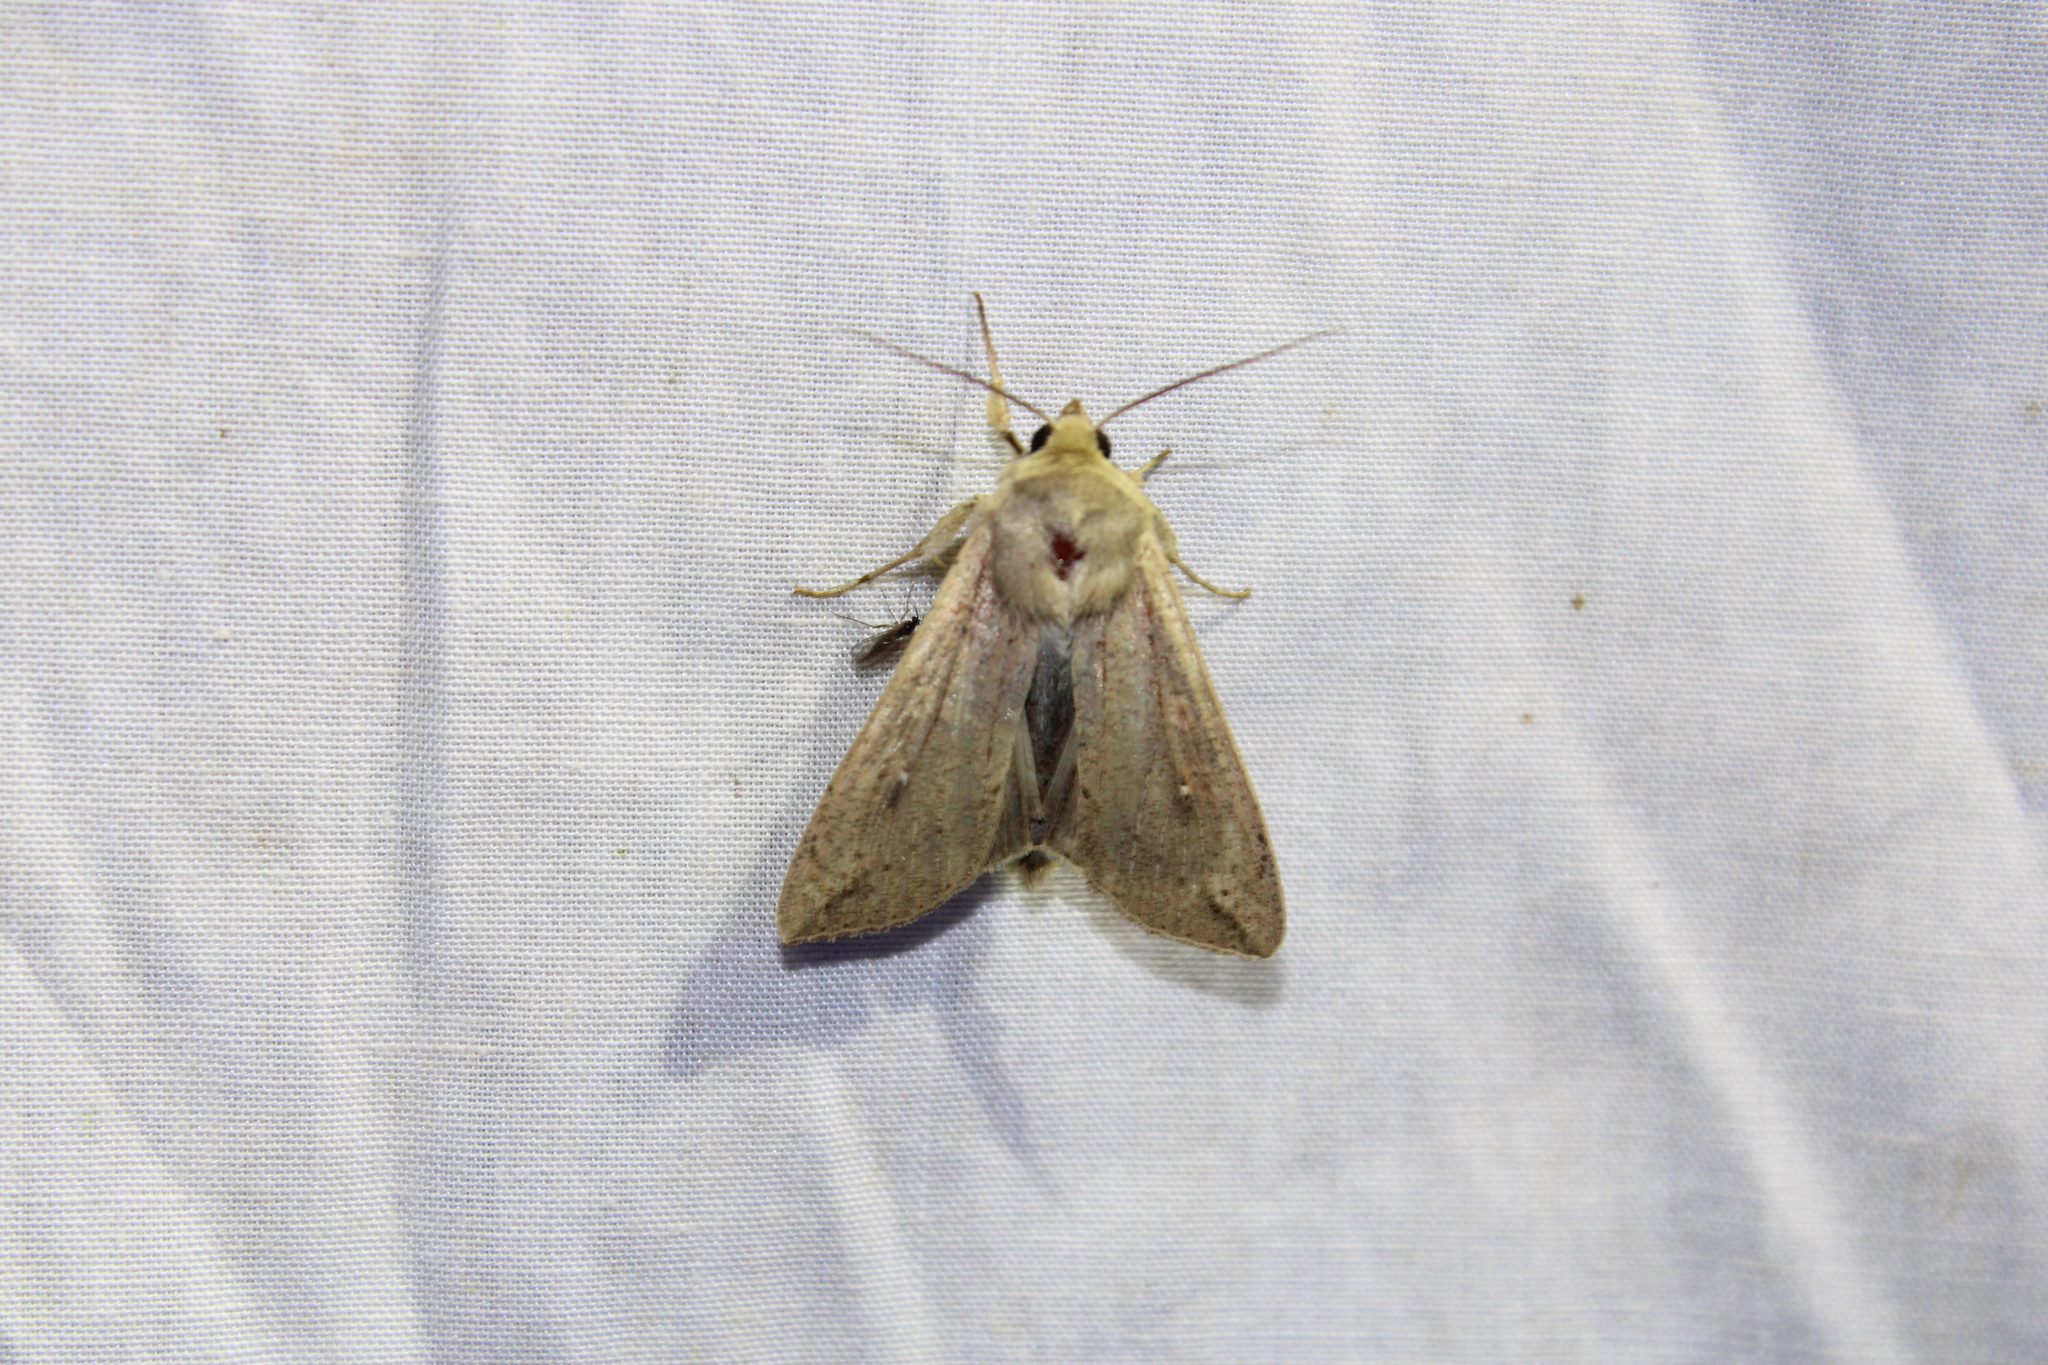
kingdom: Animalia
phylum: Arthropoda
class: Insecta
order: Lepidoptera
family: Noctuidae
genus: Mythimna
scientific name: Mythimna unipuncta
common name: White-speck
